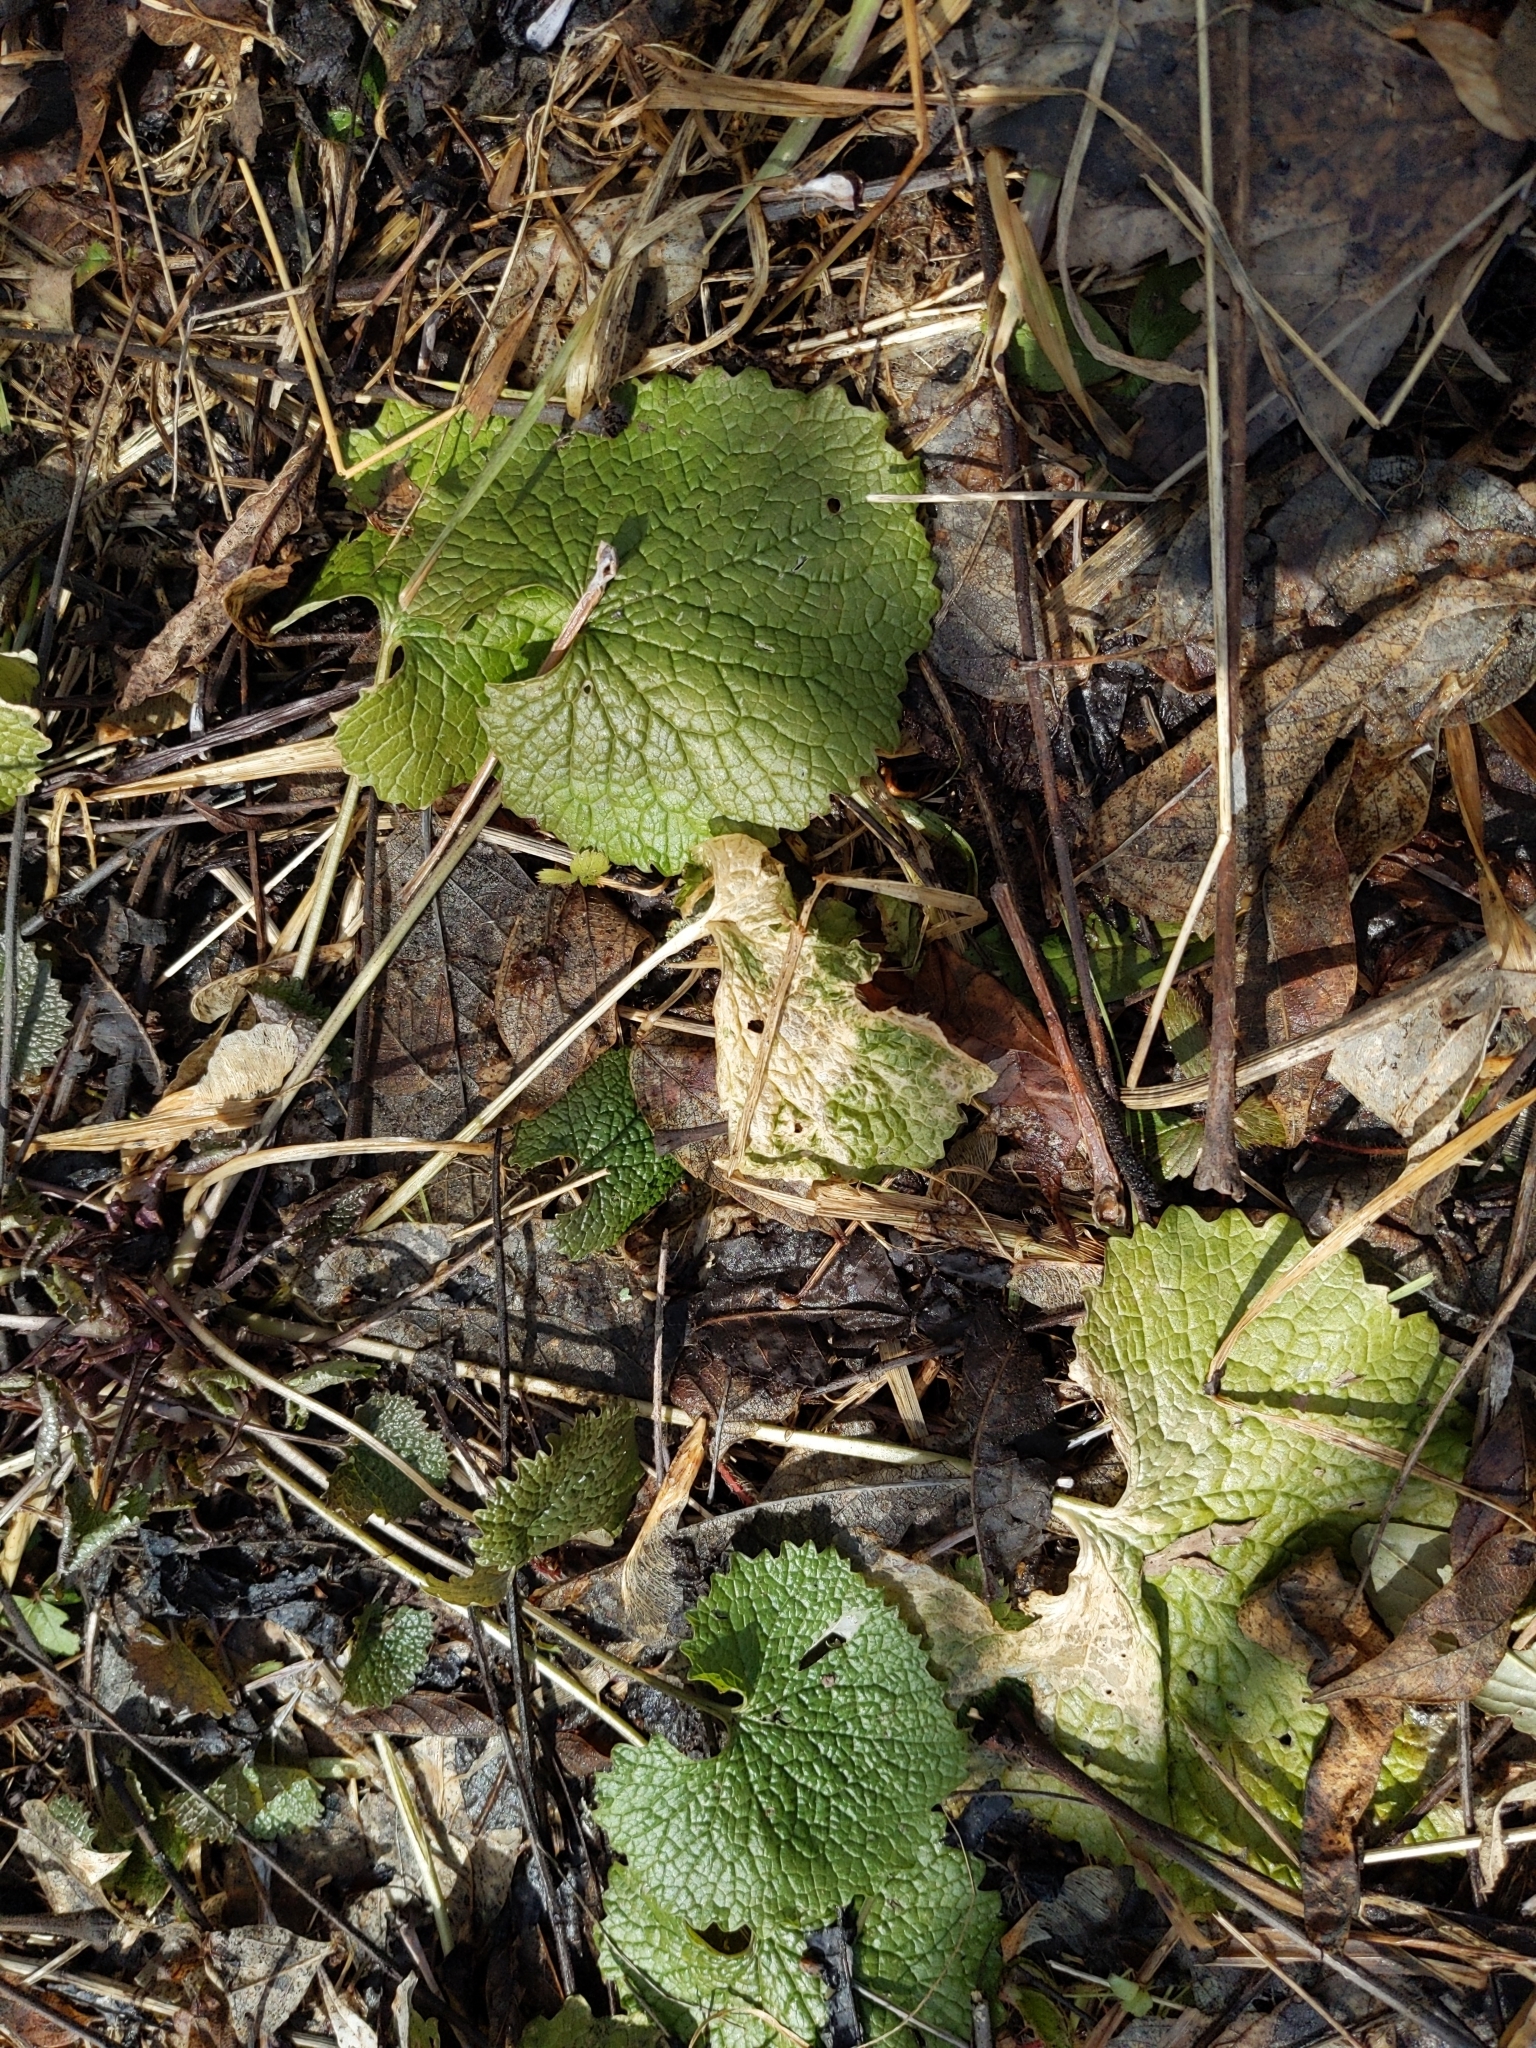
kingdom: Plantae
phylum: Tracheophyta
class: Magnoliopsida
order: Brassicales
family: Brassicaceae
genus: Alliaria
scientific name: Alliaria petiolata
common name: Garlic mustard
